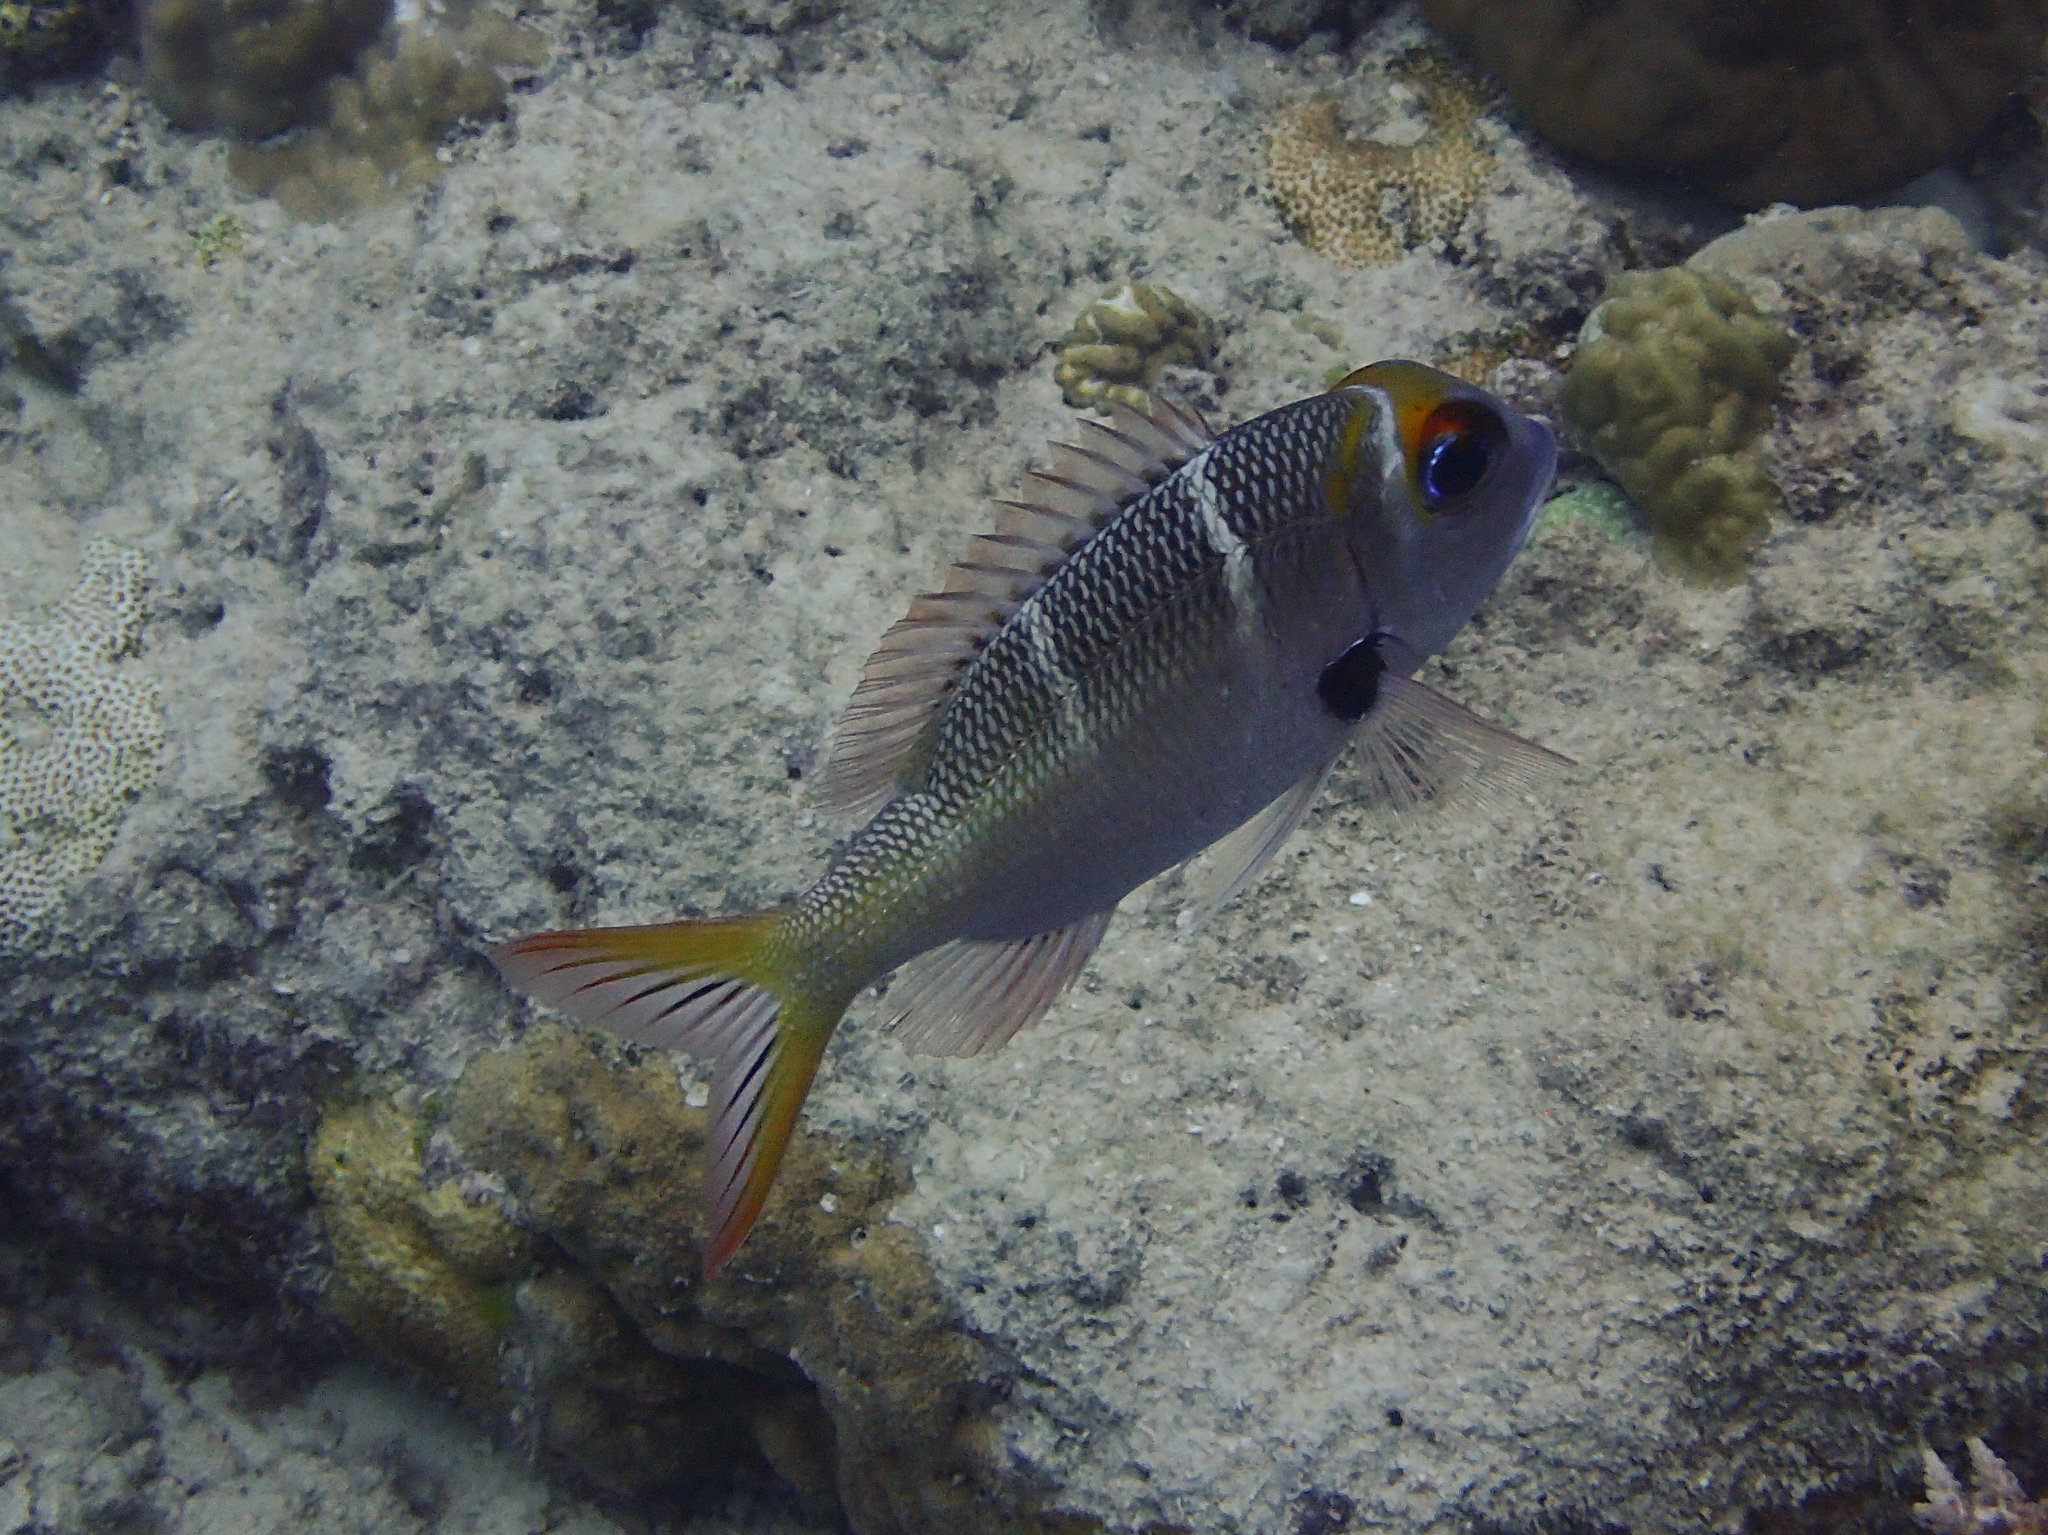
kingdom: Animalia
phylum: Chordata
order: Perciformes
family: Lethrinidae
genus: Monotaxis
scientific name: Monotaxis heterodon
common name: Redfin emperor
